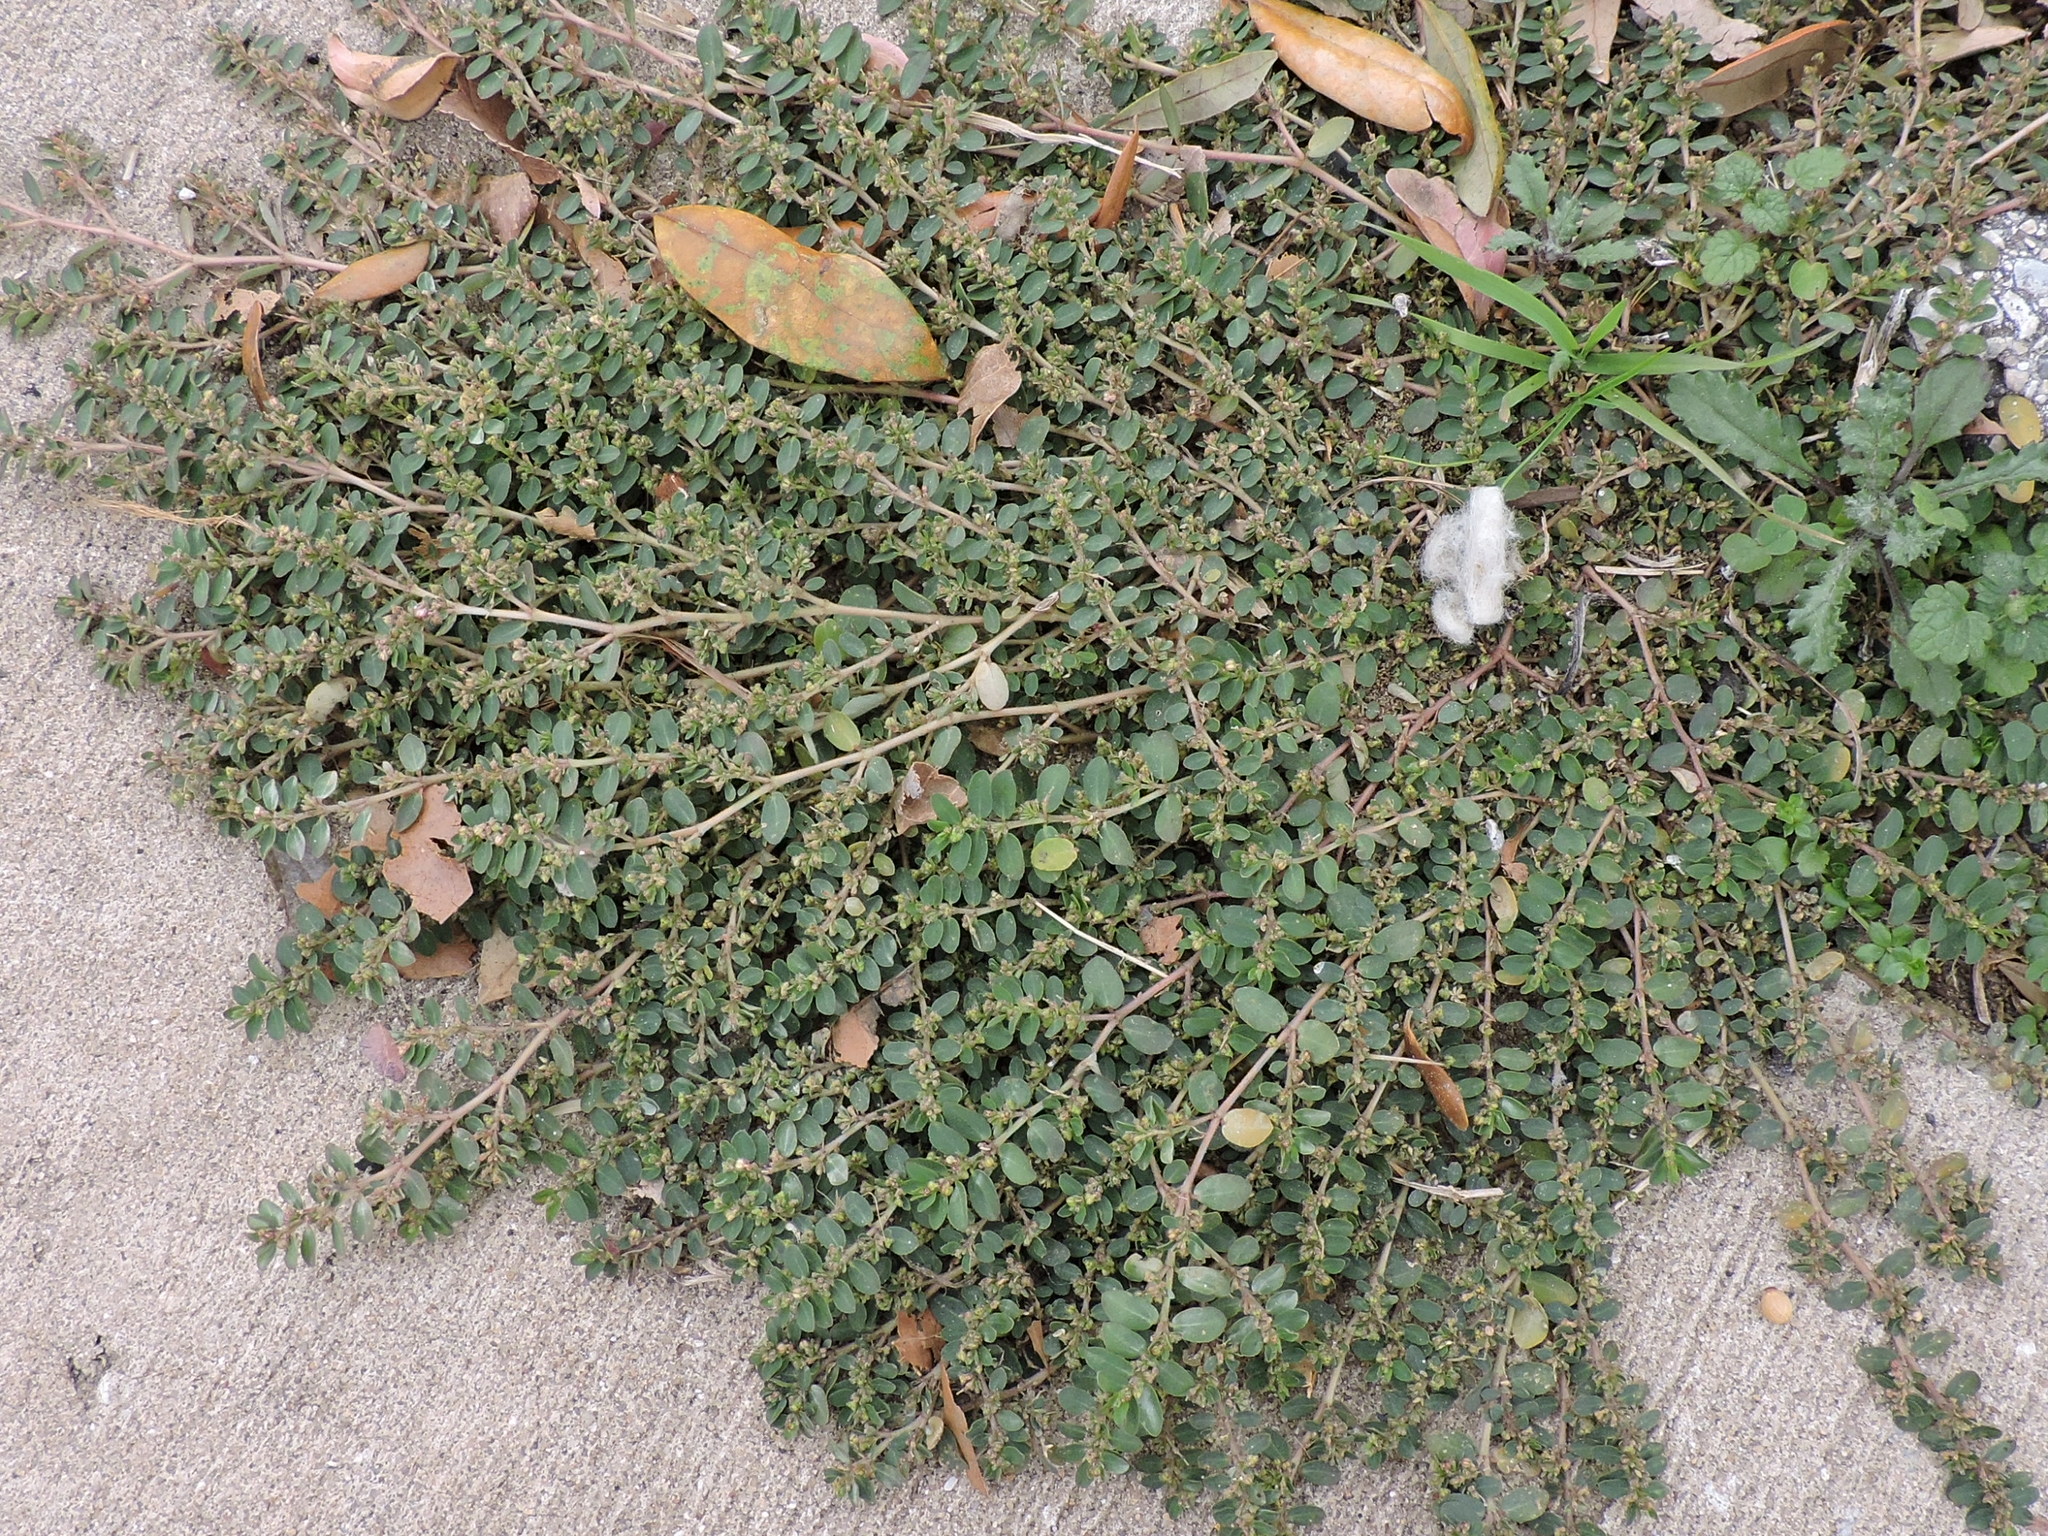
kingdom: Plantae
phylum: Tracheophyta
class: Magnoliopsida
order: Malpighiales
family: Euphorbiaceae
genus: Euphorbia
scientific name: Euphorbia prostrata
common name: Prostrate sandmat
